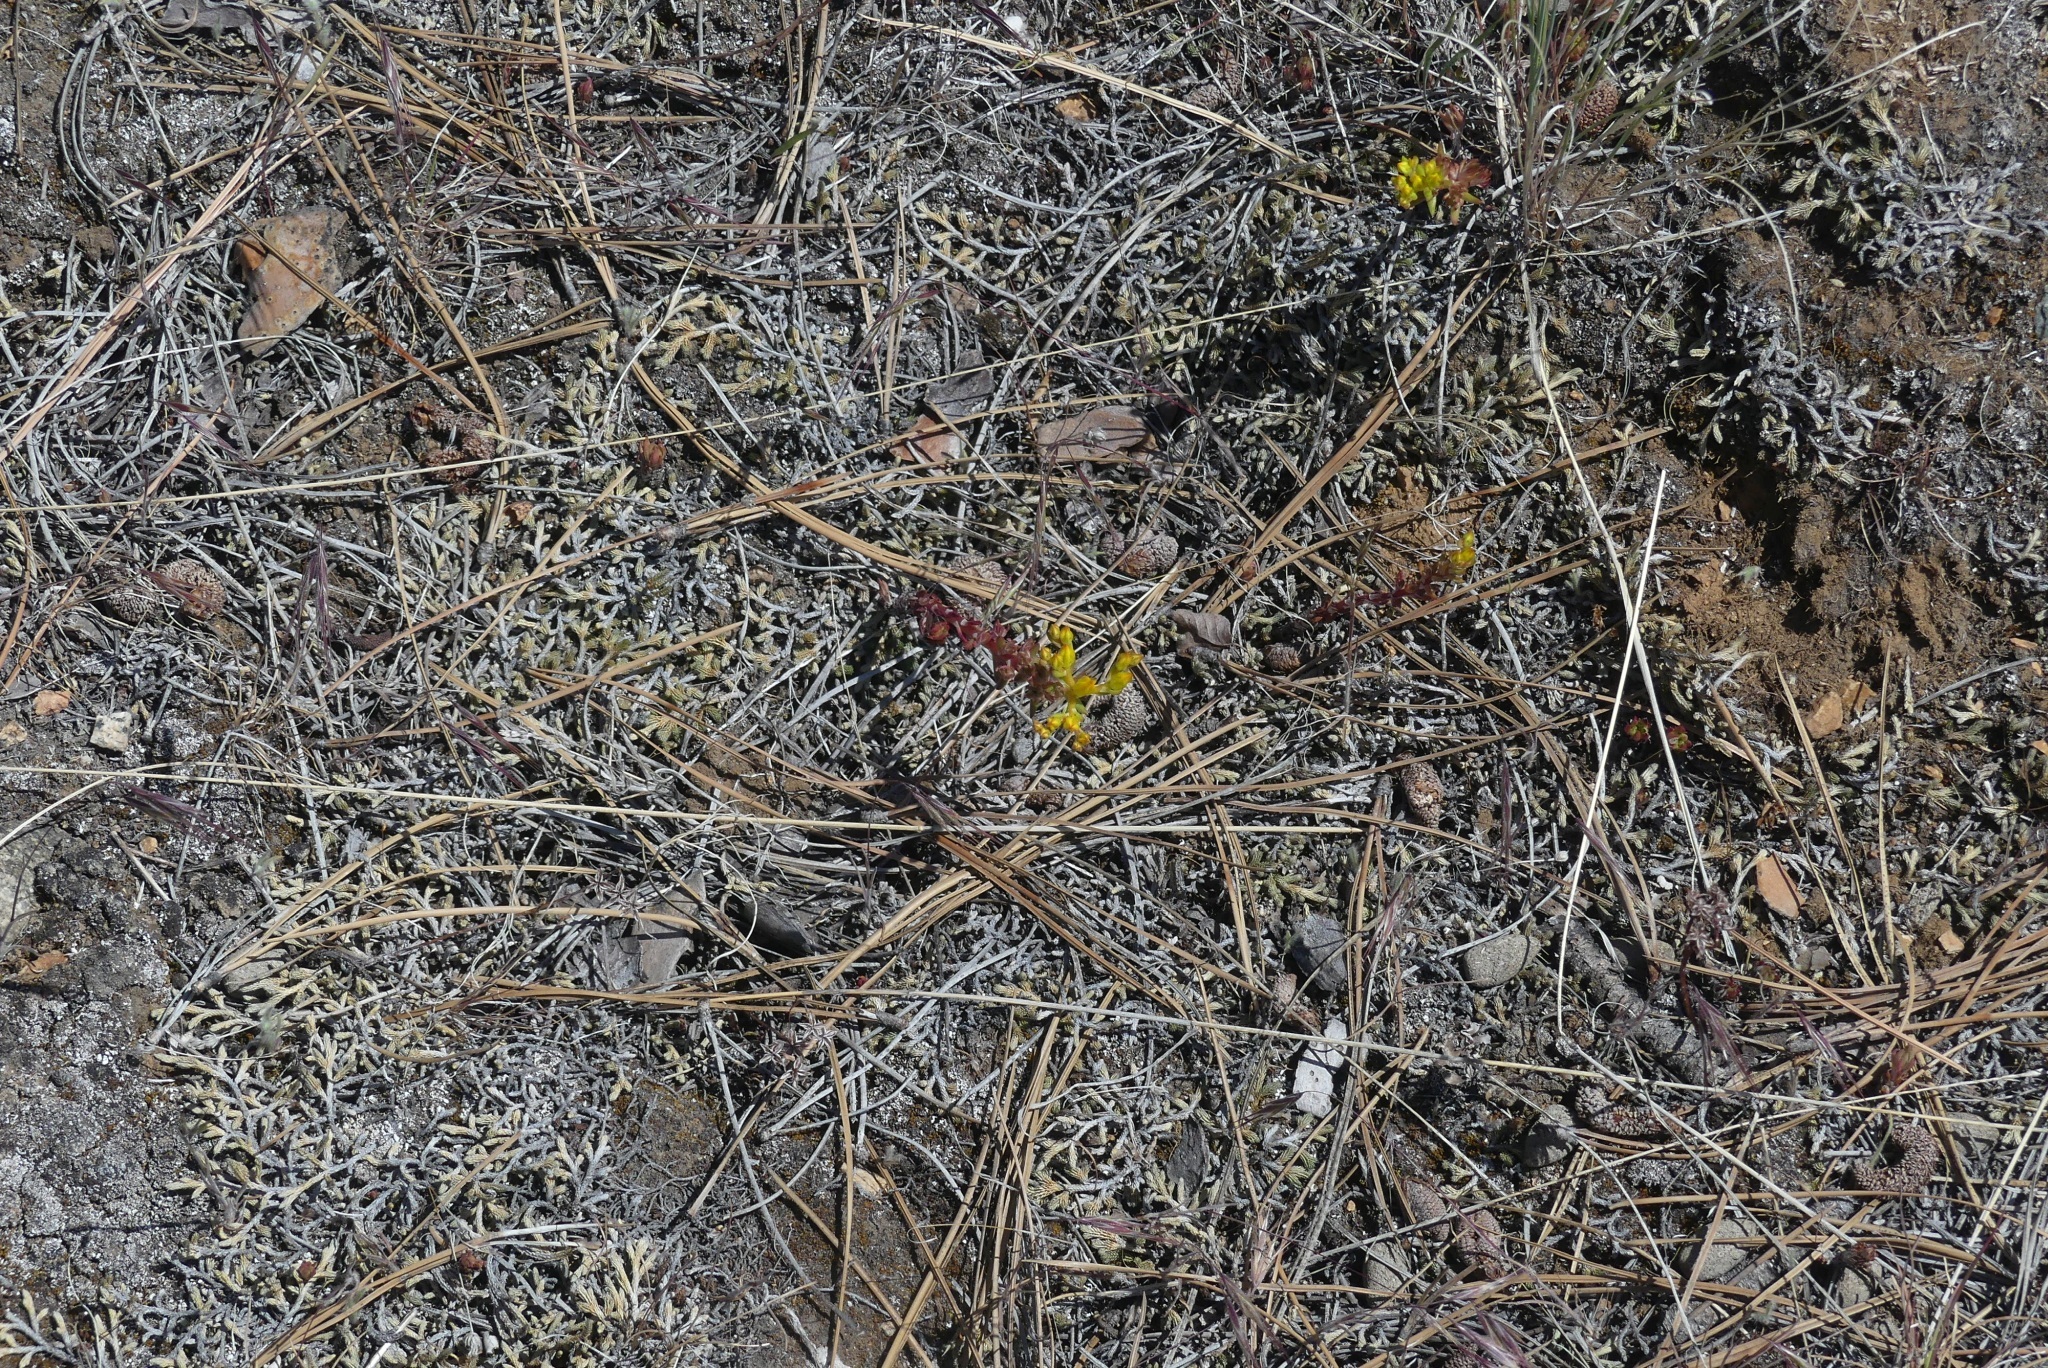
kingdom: Plantae
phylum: Tracheophyta
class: Magnoliopsida
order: Saxifragales
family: Crassulaceae
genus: Sedum
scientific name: Sedum stenopetalum
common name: Narrow-petaled stonecrop
